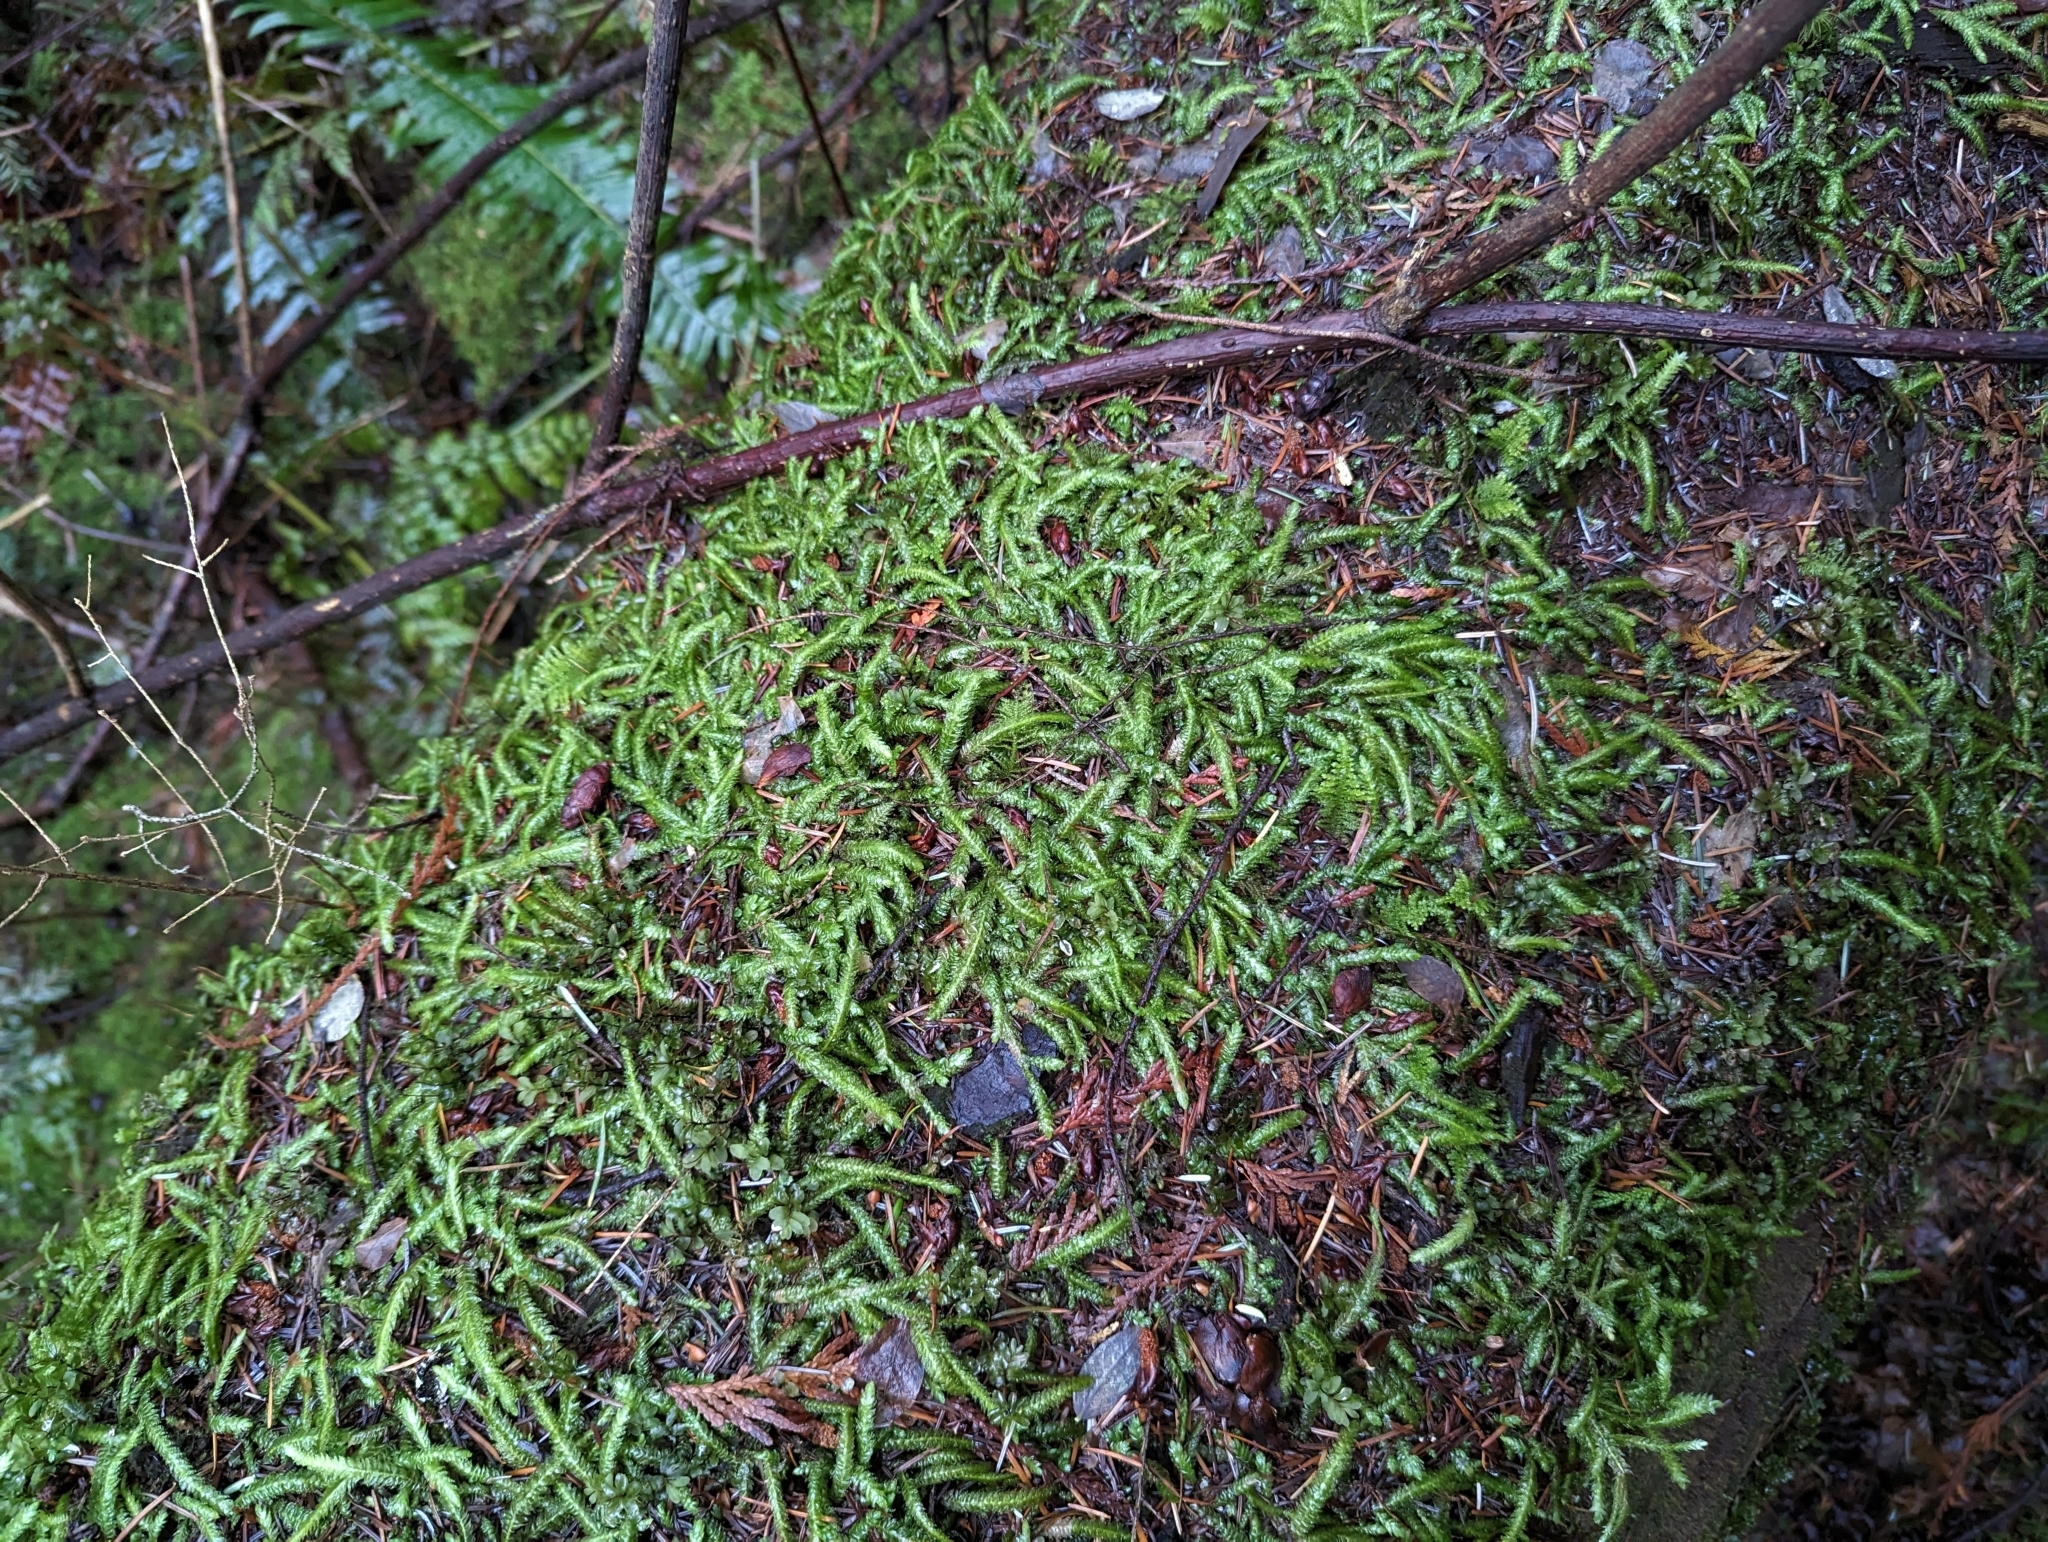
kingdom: Plantae
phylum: Bryophyta
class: Bryopsida
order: Hypnales
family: Plagiotheciaceae
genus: Plagiothecium
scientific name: Plagiothecium undulatum
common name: Waved silk-moss
